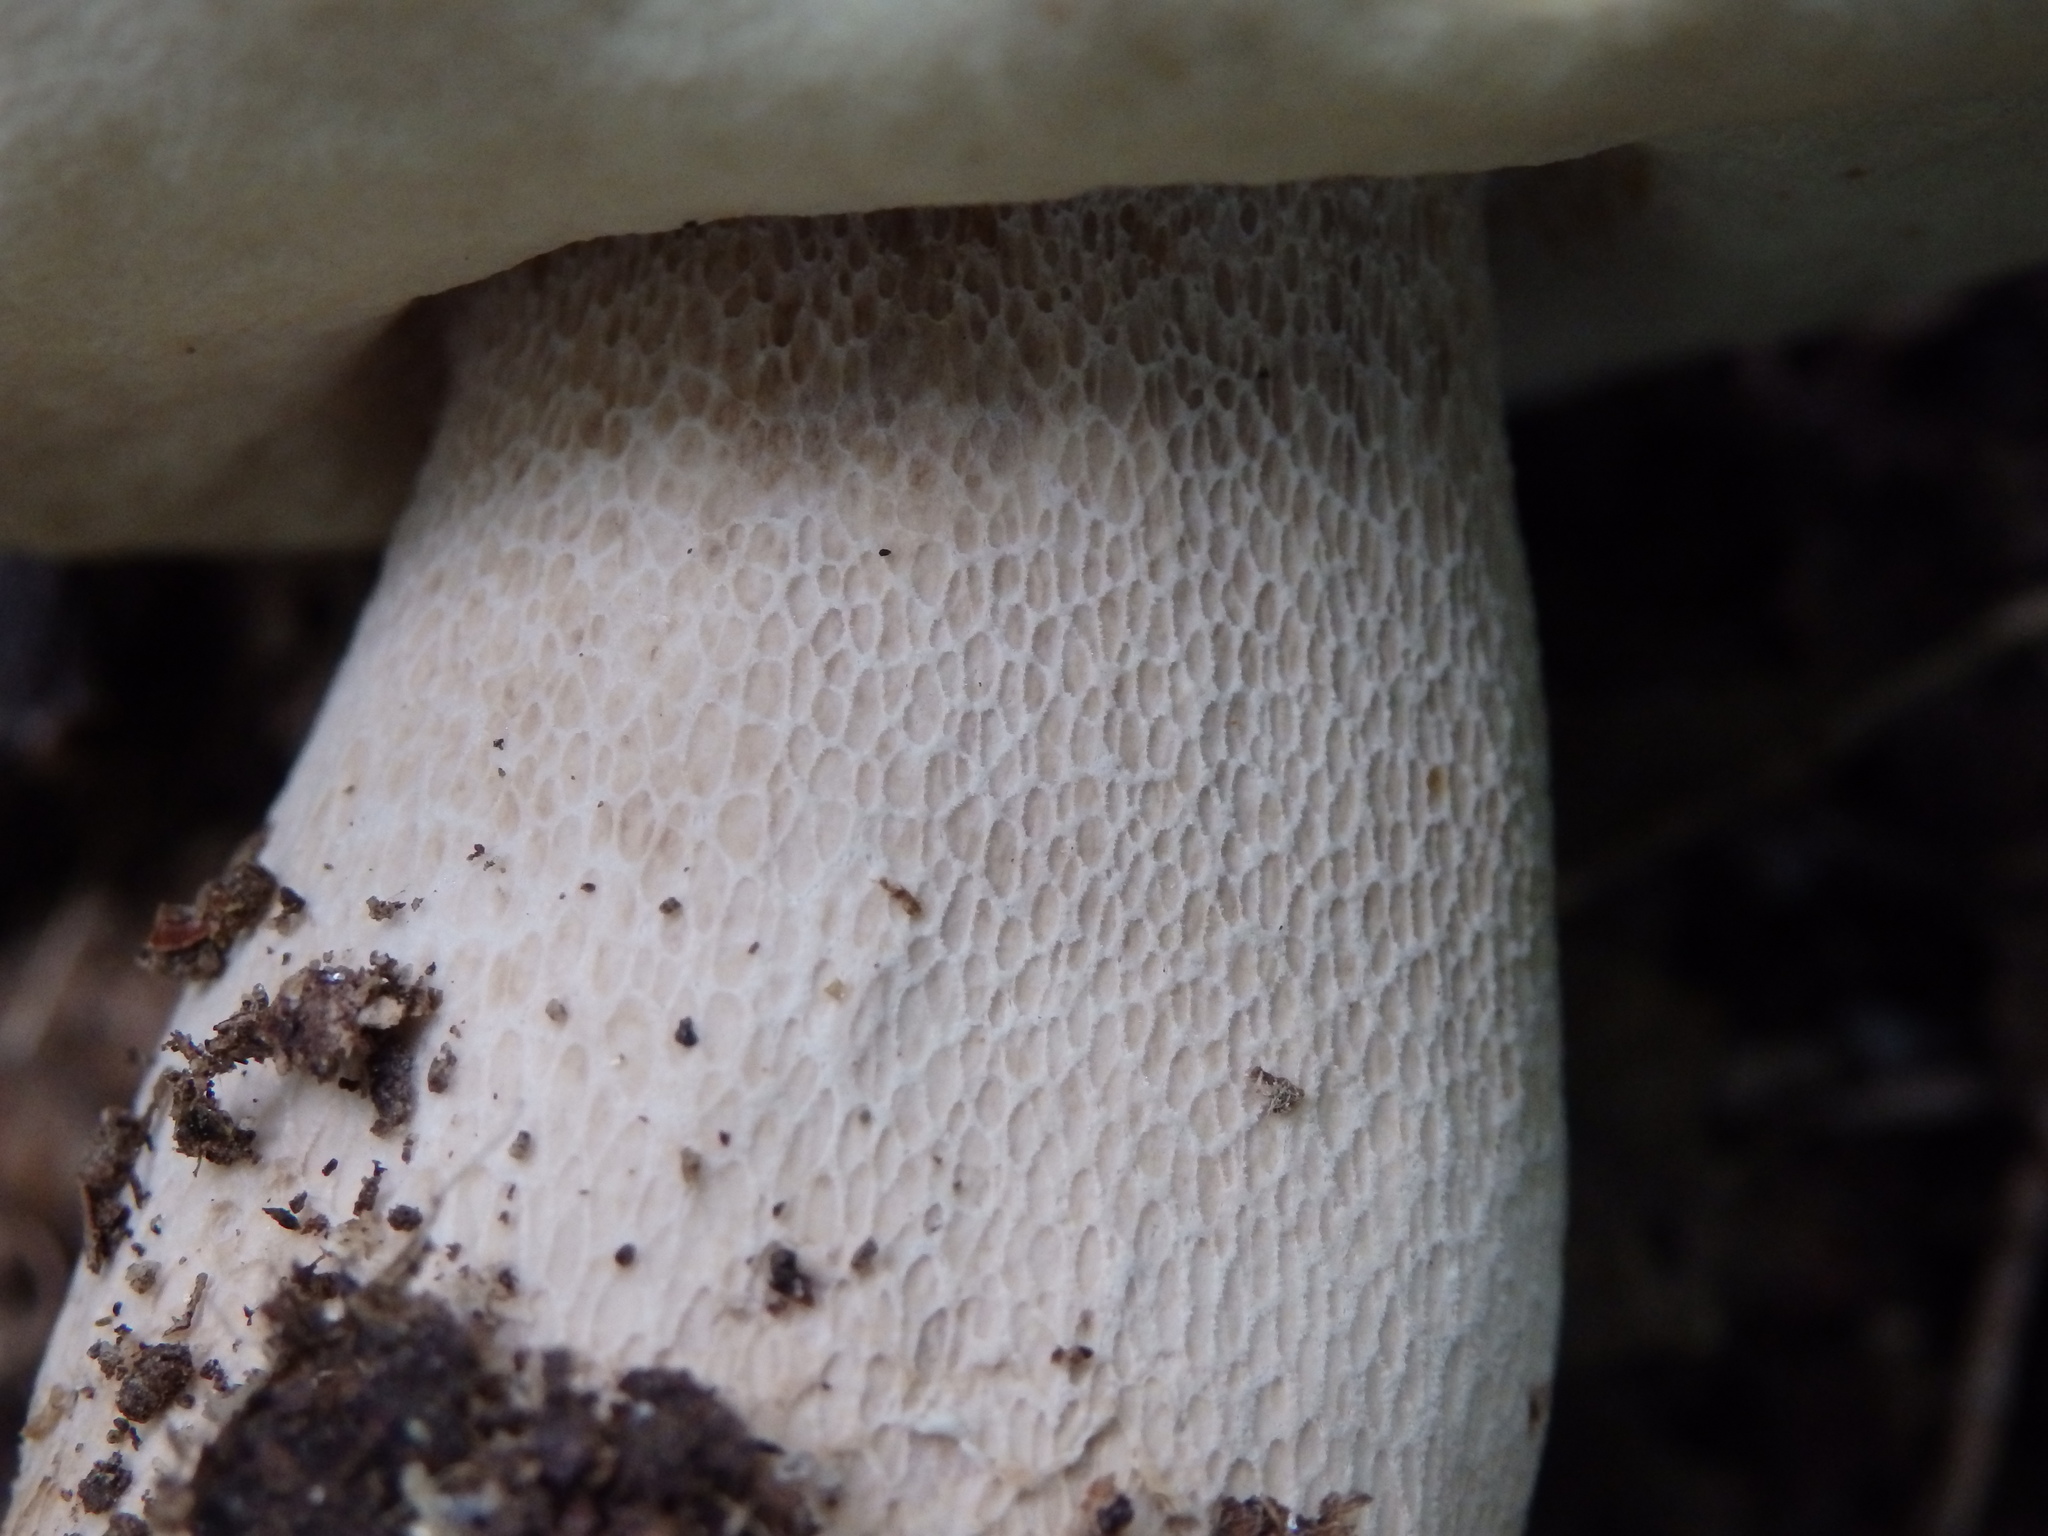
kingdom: Fungi
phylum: Basidiomycota
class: Agaricomycetes
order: Boletales
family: Boletaceae
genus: Boletus
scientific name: Boletus reticulatus
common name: Summer bolete
